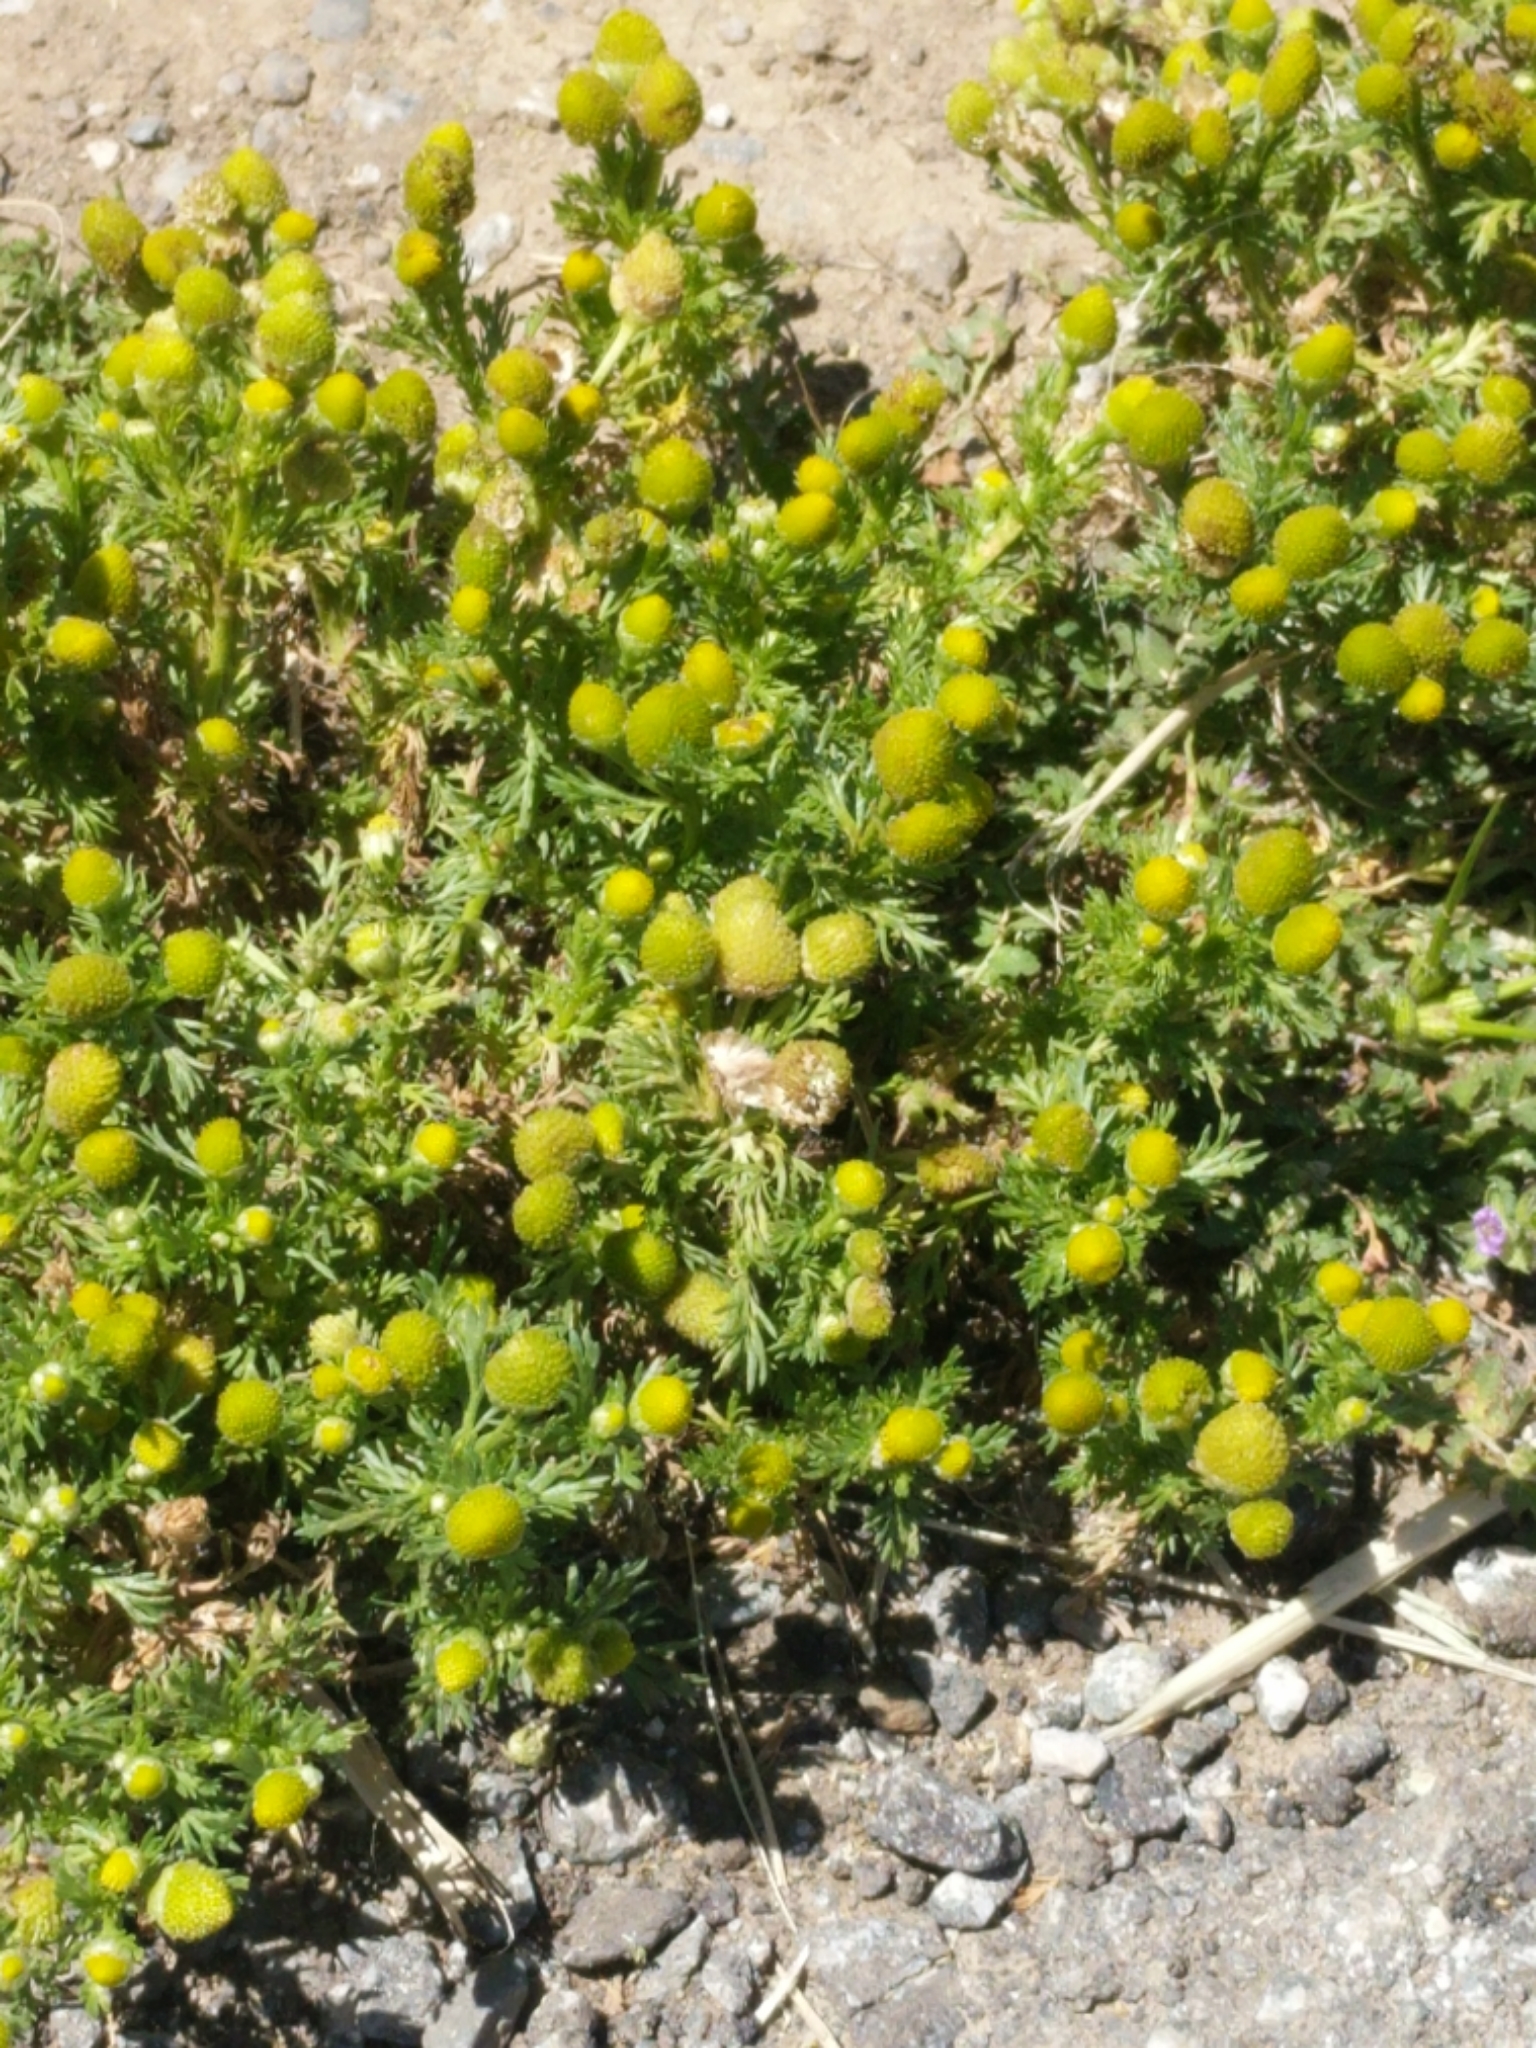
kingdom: Plantae
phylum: Tracheophyta
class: Magnoliopsida
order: Asterales
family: Asteraceae
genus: Matricaria
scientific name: Matricaria discoidea
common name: Disc mayweed
